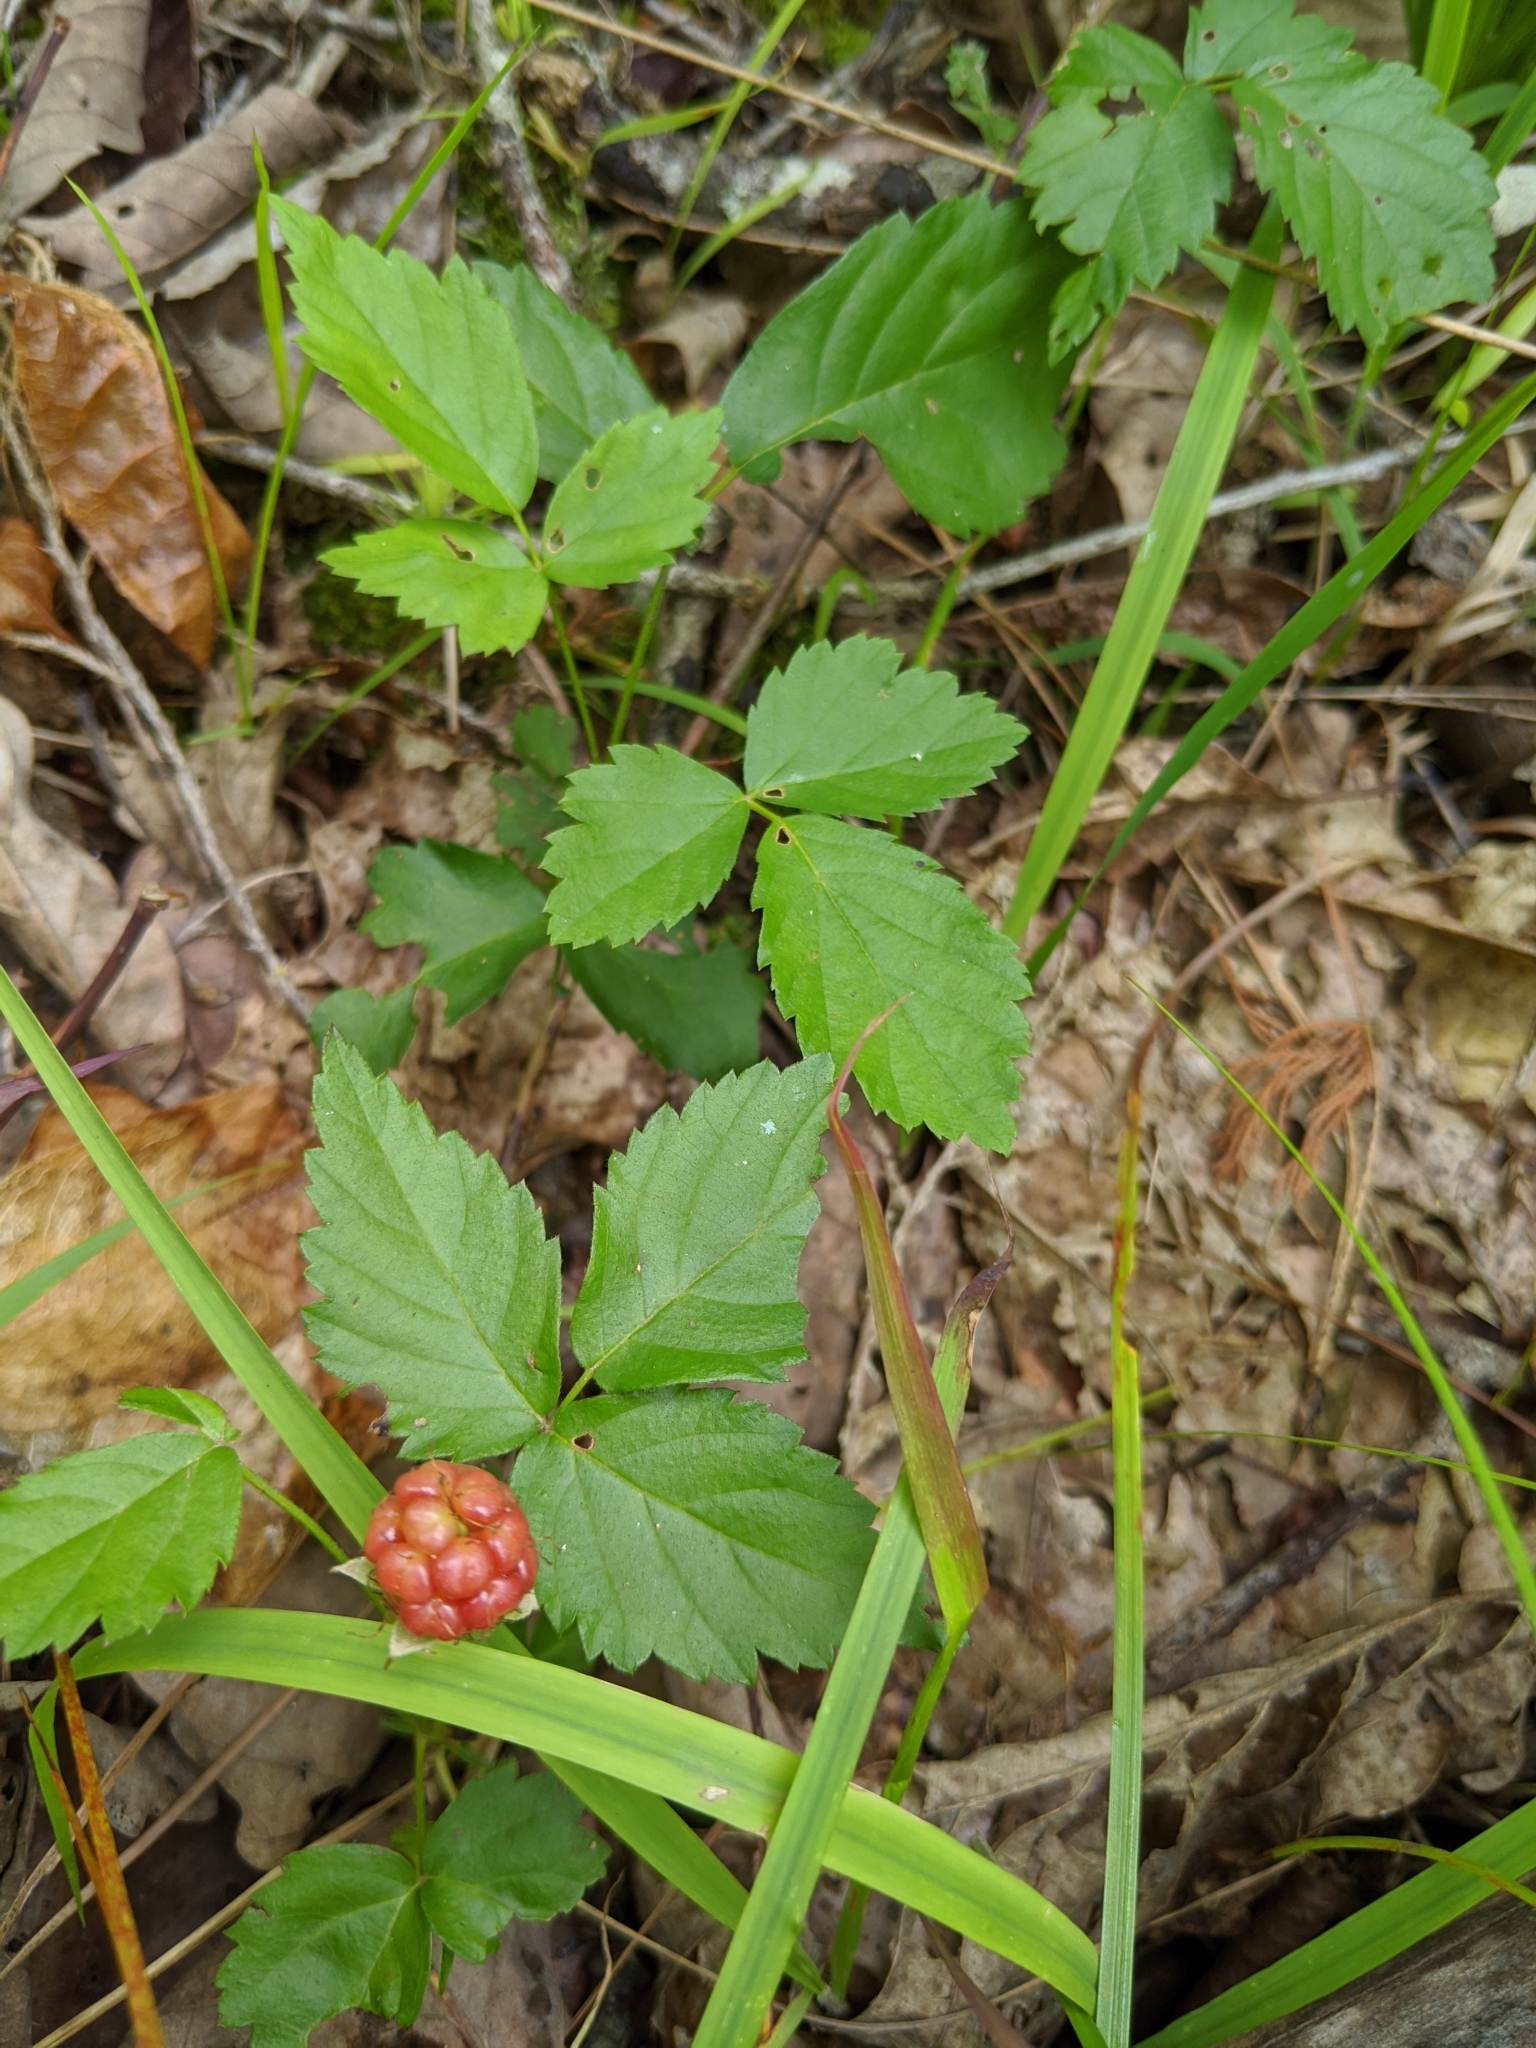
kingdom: Plantae
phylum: Tracheophyta
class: Magnoliopsida
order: Rosales
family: Rosaceae
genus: Rubus
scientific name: Rubus flagellaris
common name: American dewberry
